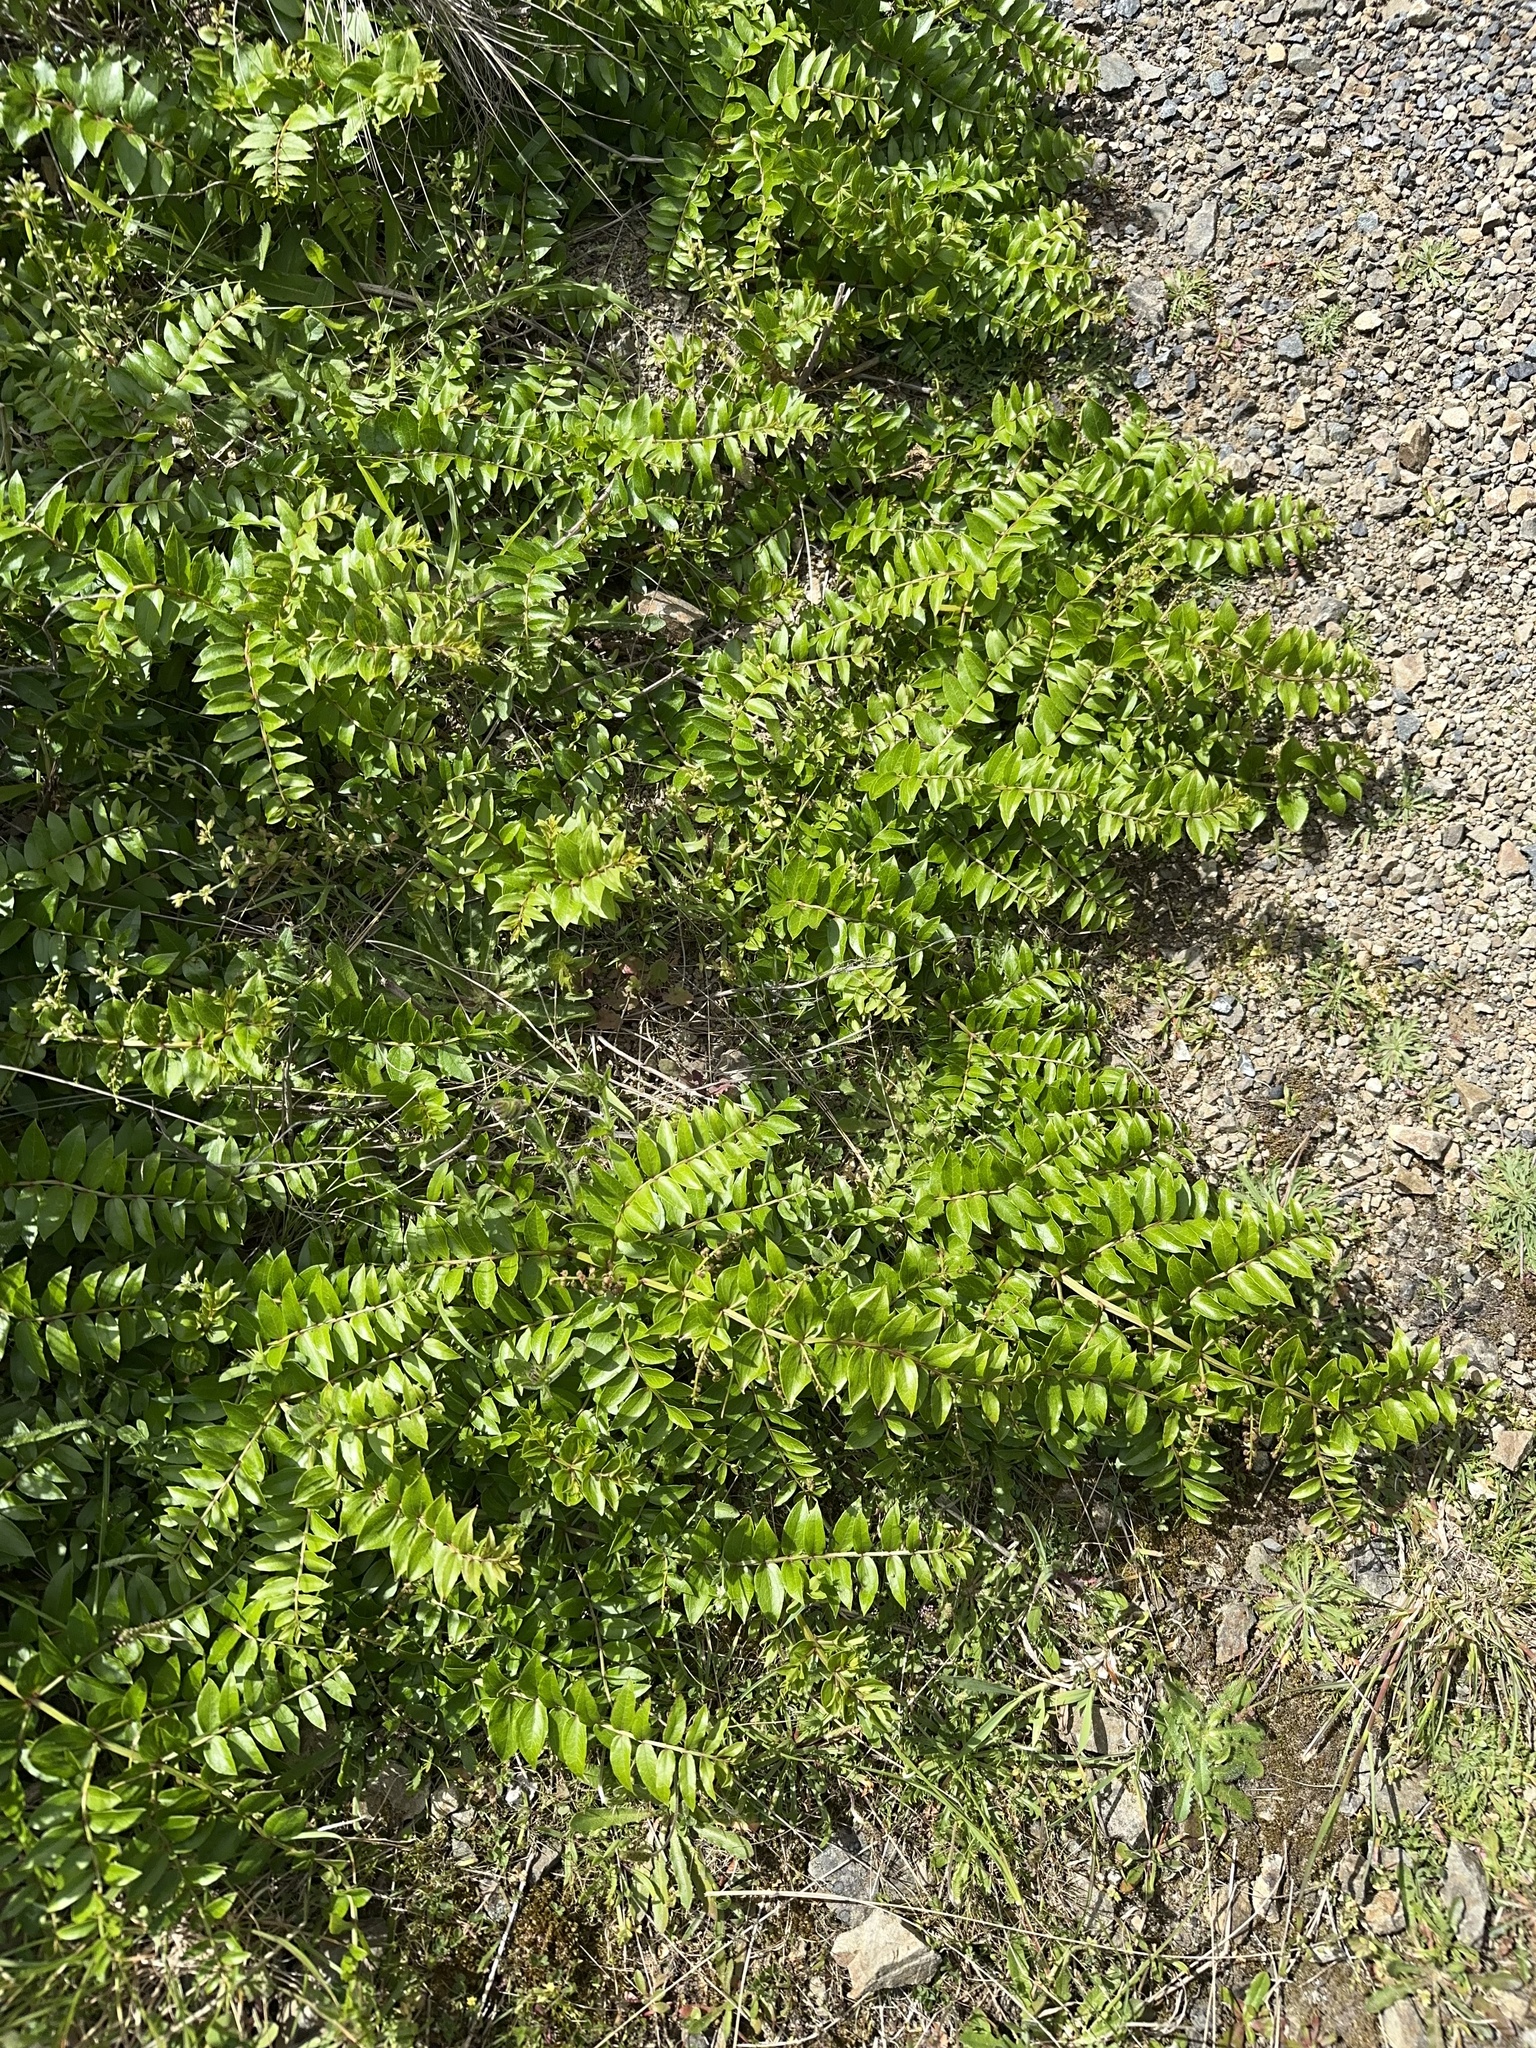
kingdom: Plantae
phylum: Tracheophyta
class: Magnoliopsida
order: Cucurbitales
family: Coriariaceae
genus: Coriaria
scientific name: Coriaria sarmentosa
